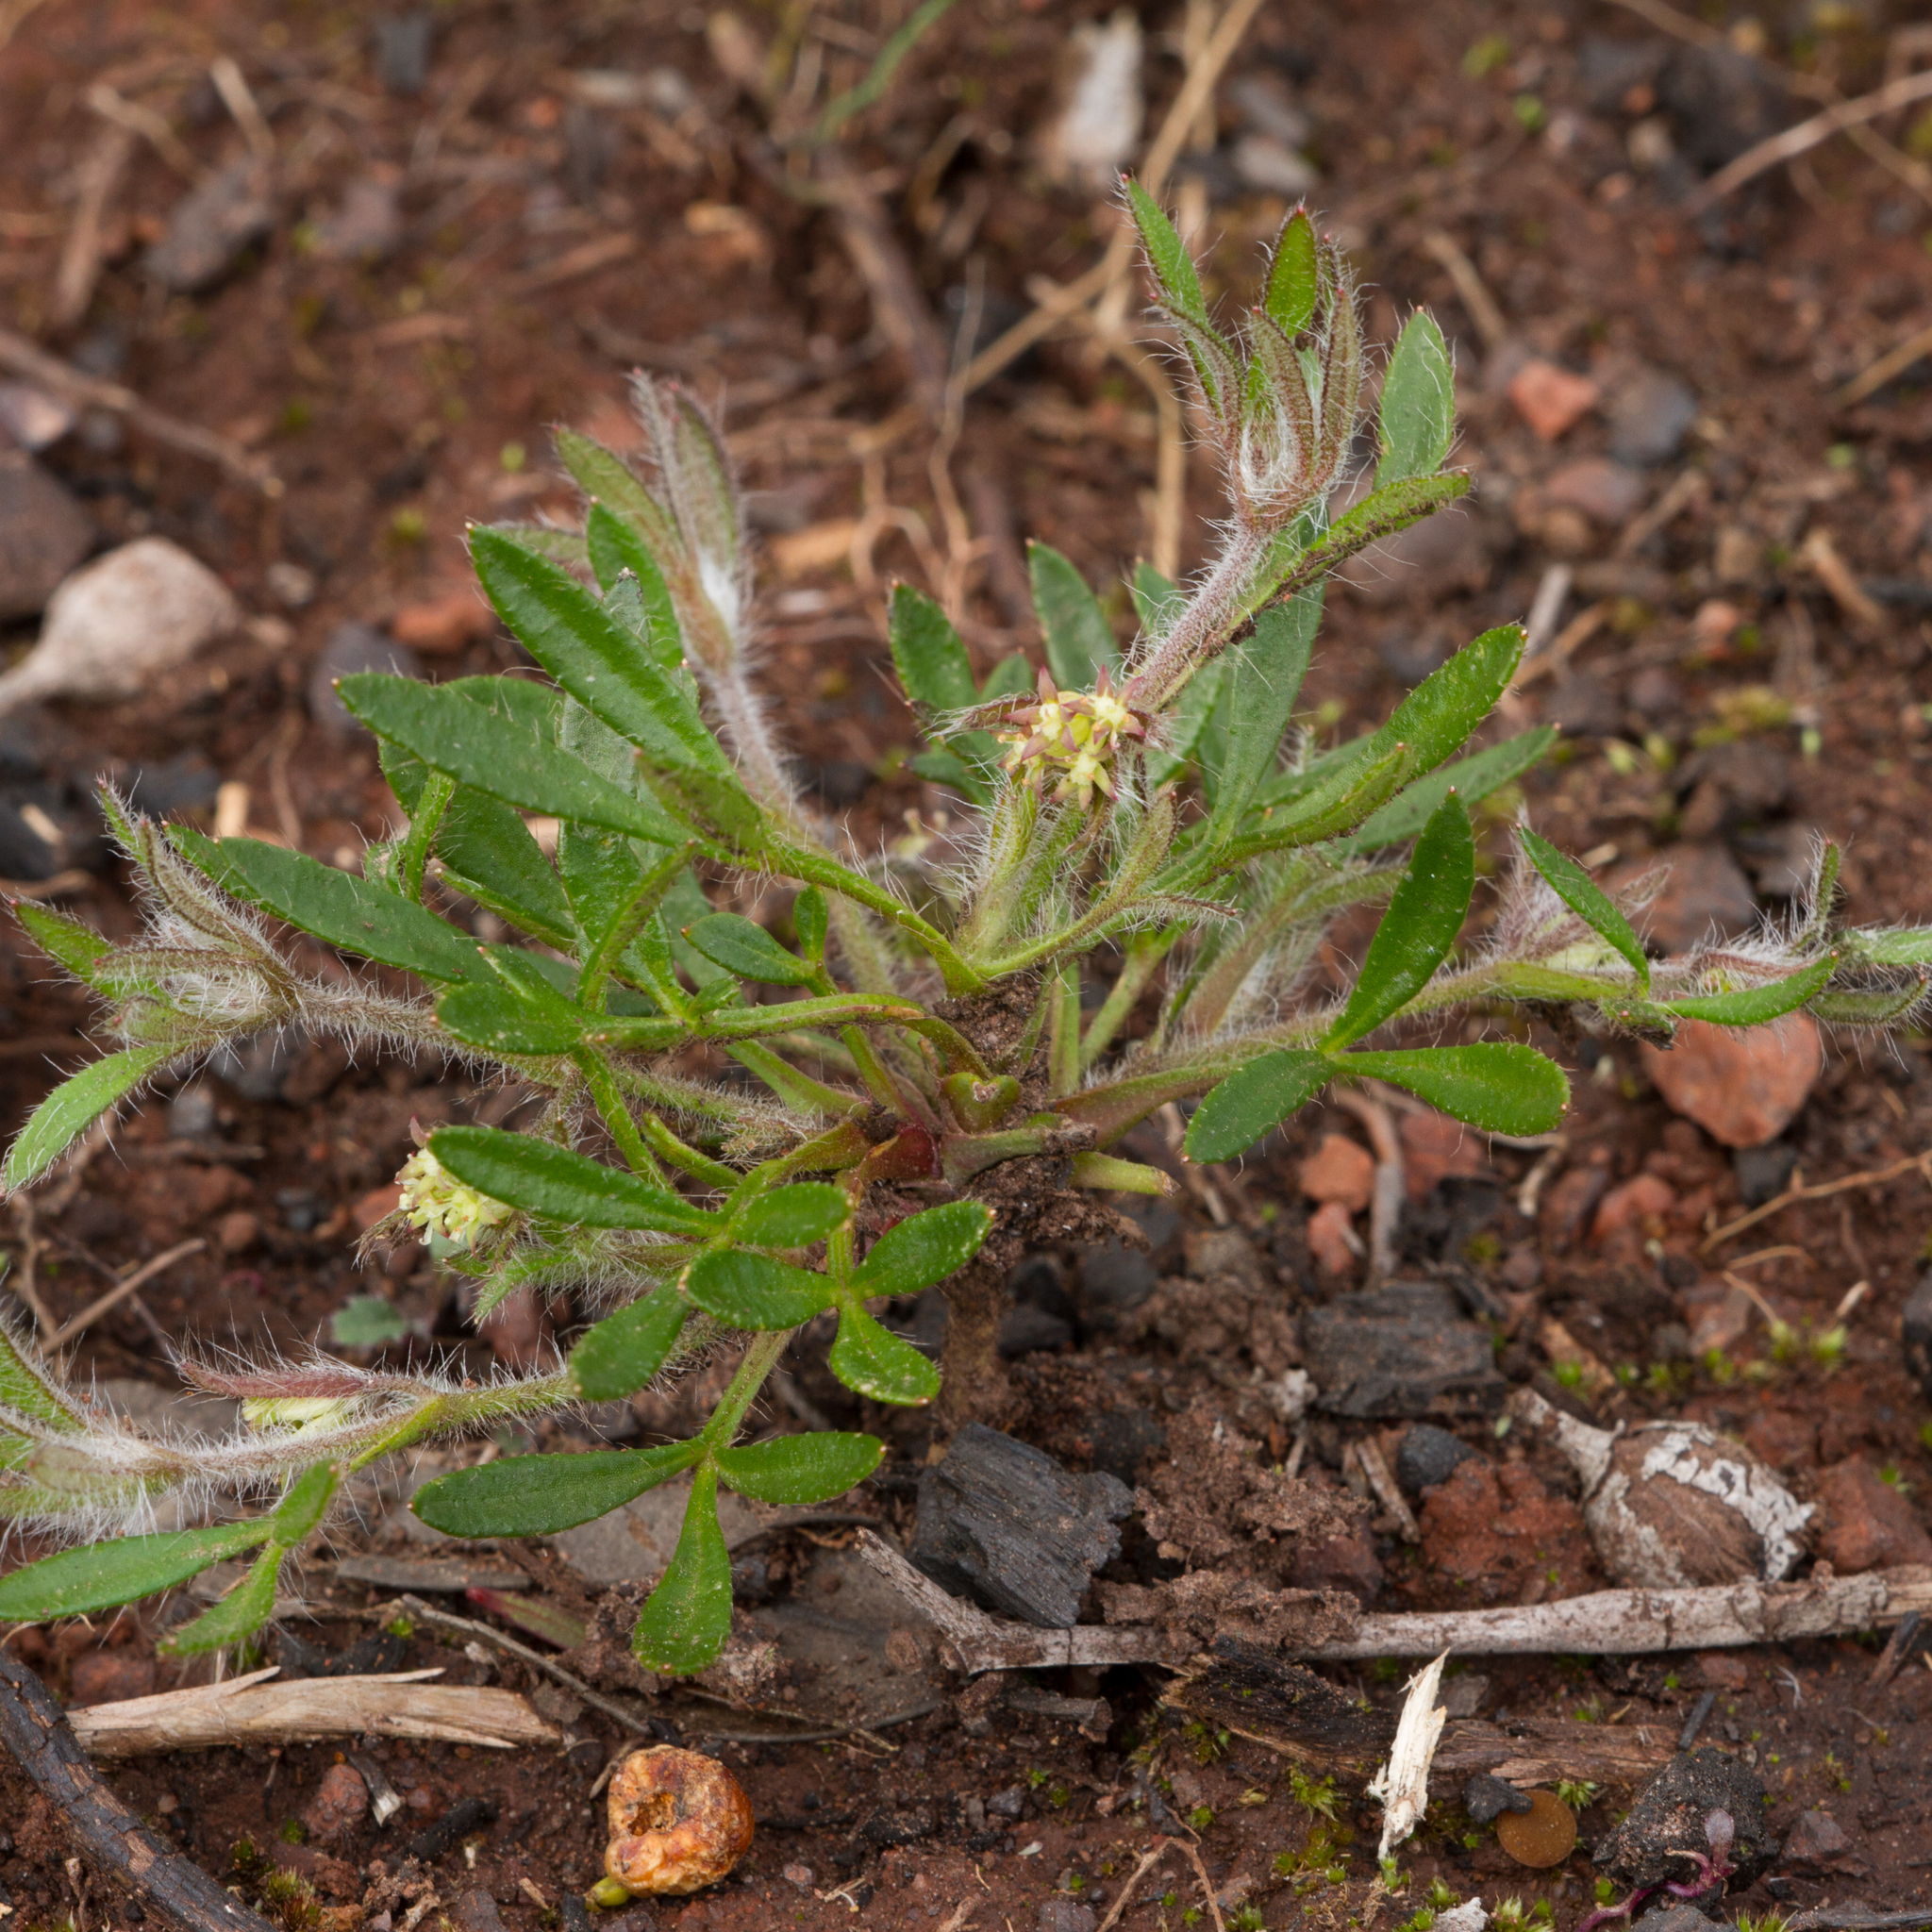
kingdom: Plantae
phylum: Tracheophyta
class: Magnoliopsida
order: Apiales
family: Apiaceae
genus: Xanthosia
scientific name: Xanthosia huegelii
